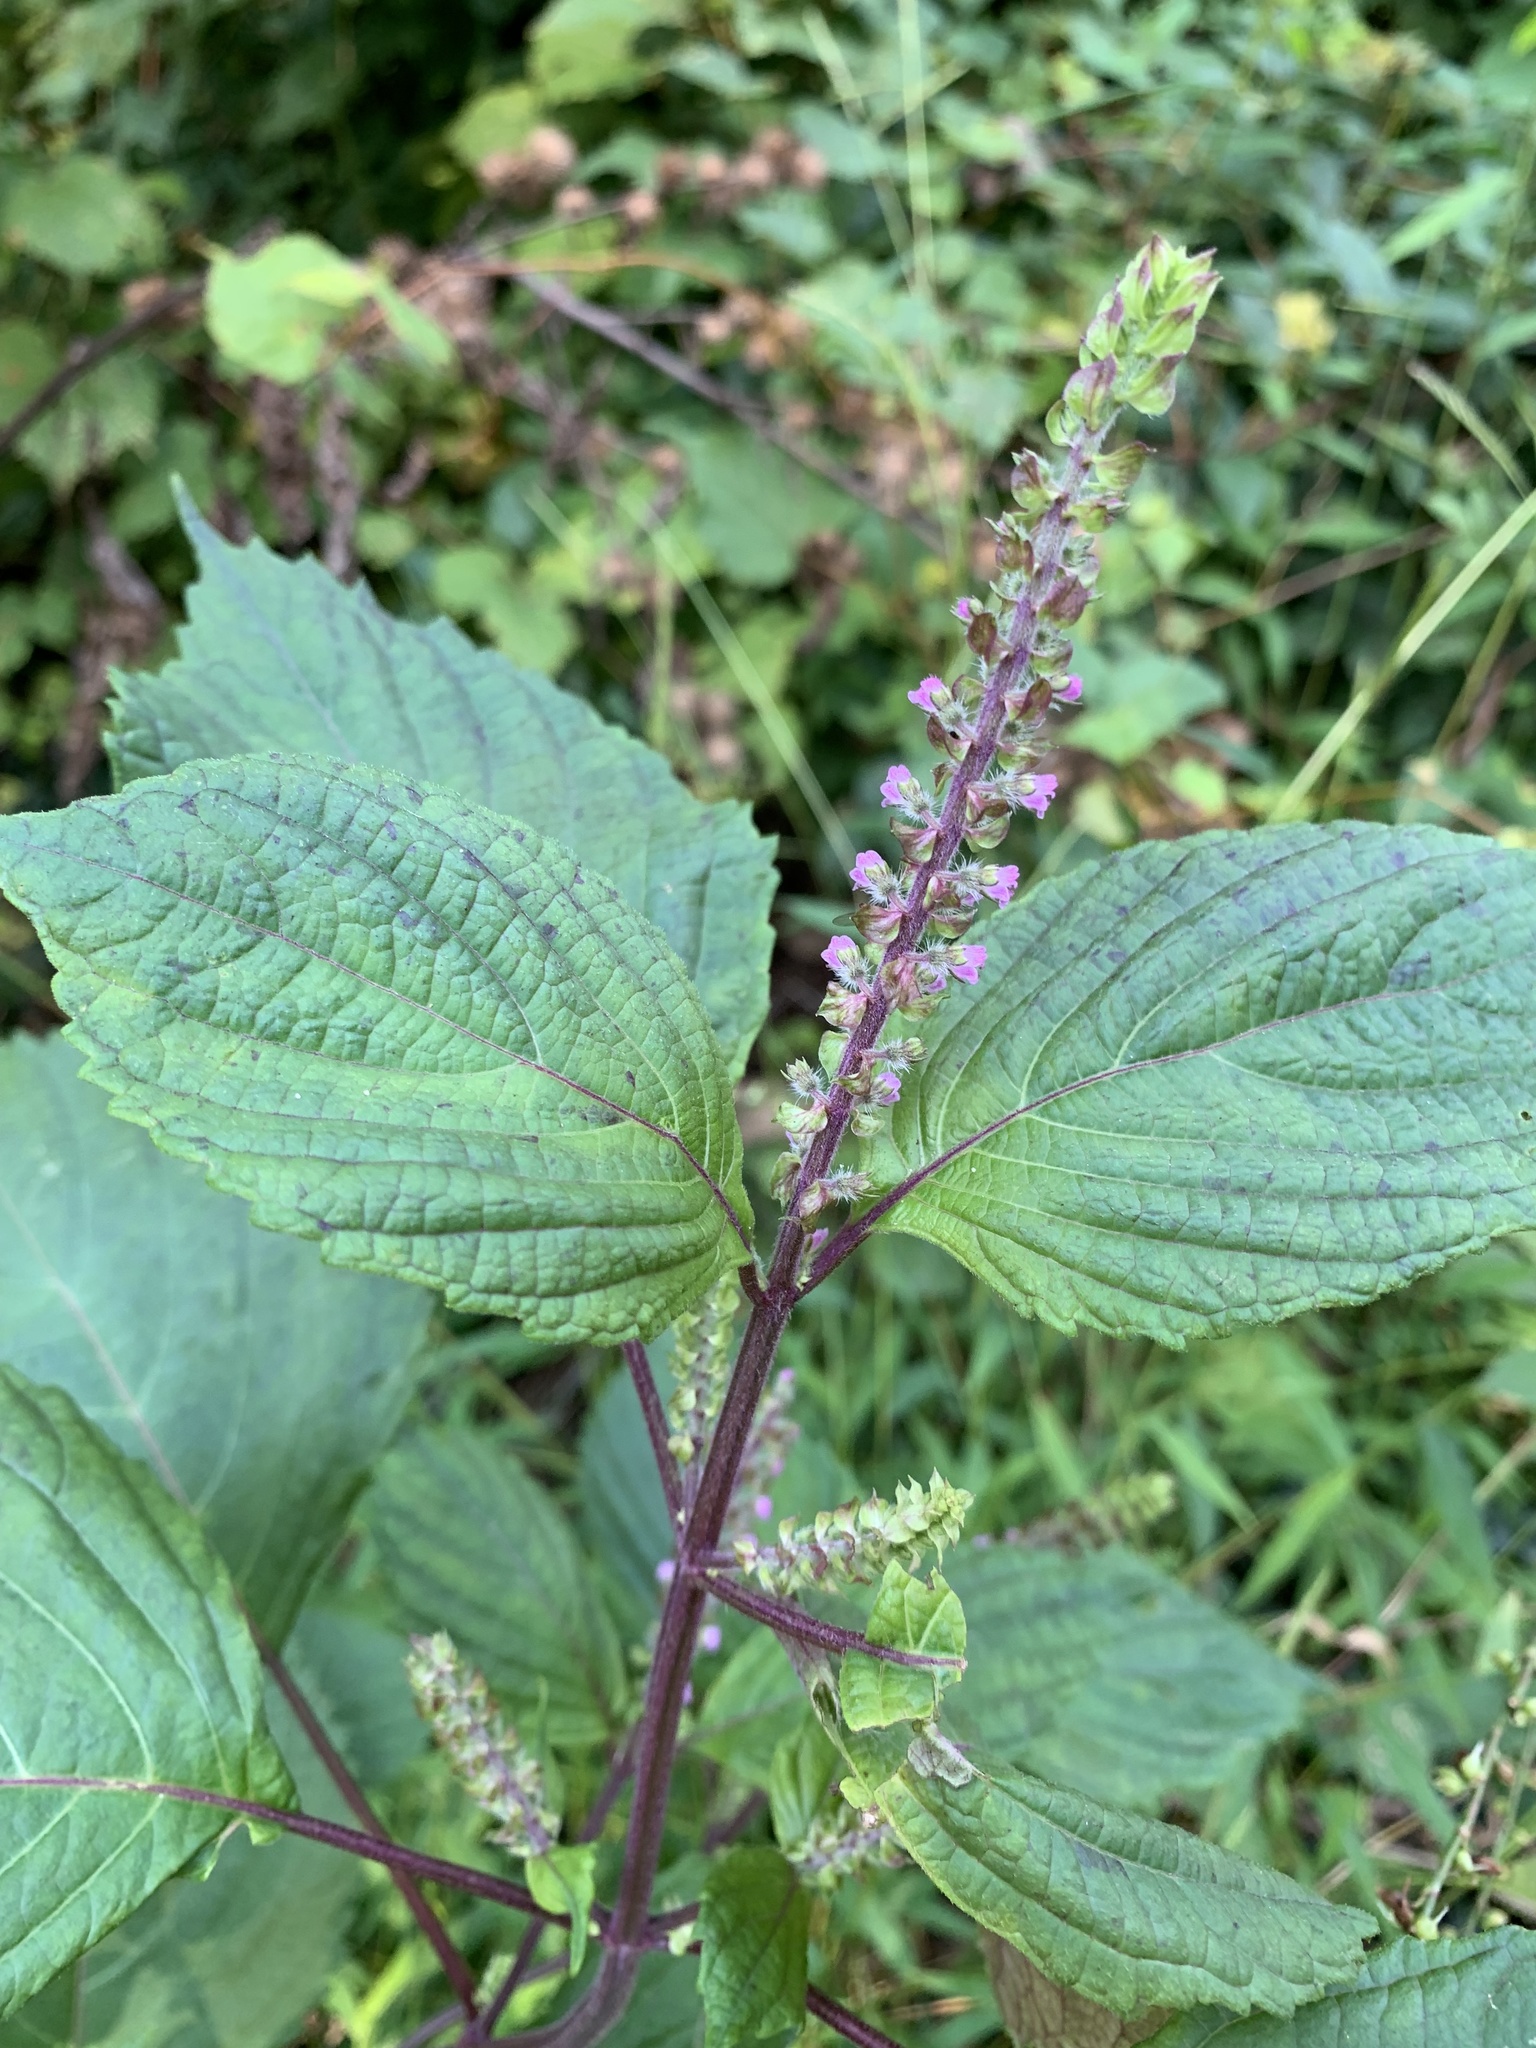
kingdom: Plantae
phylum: Tracheophyta
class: Magnoliopsida
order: Lamiales
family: Lamiaceae
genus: Perilla
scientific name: Perilla frutescens
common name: Perilla
